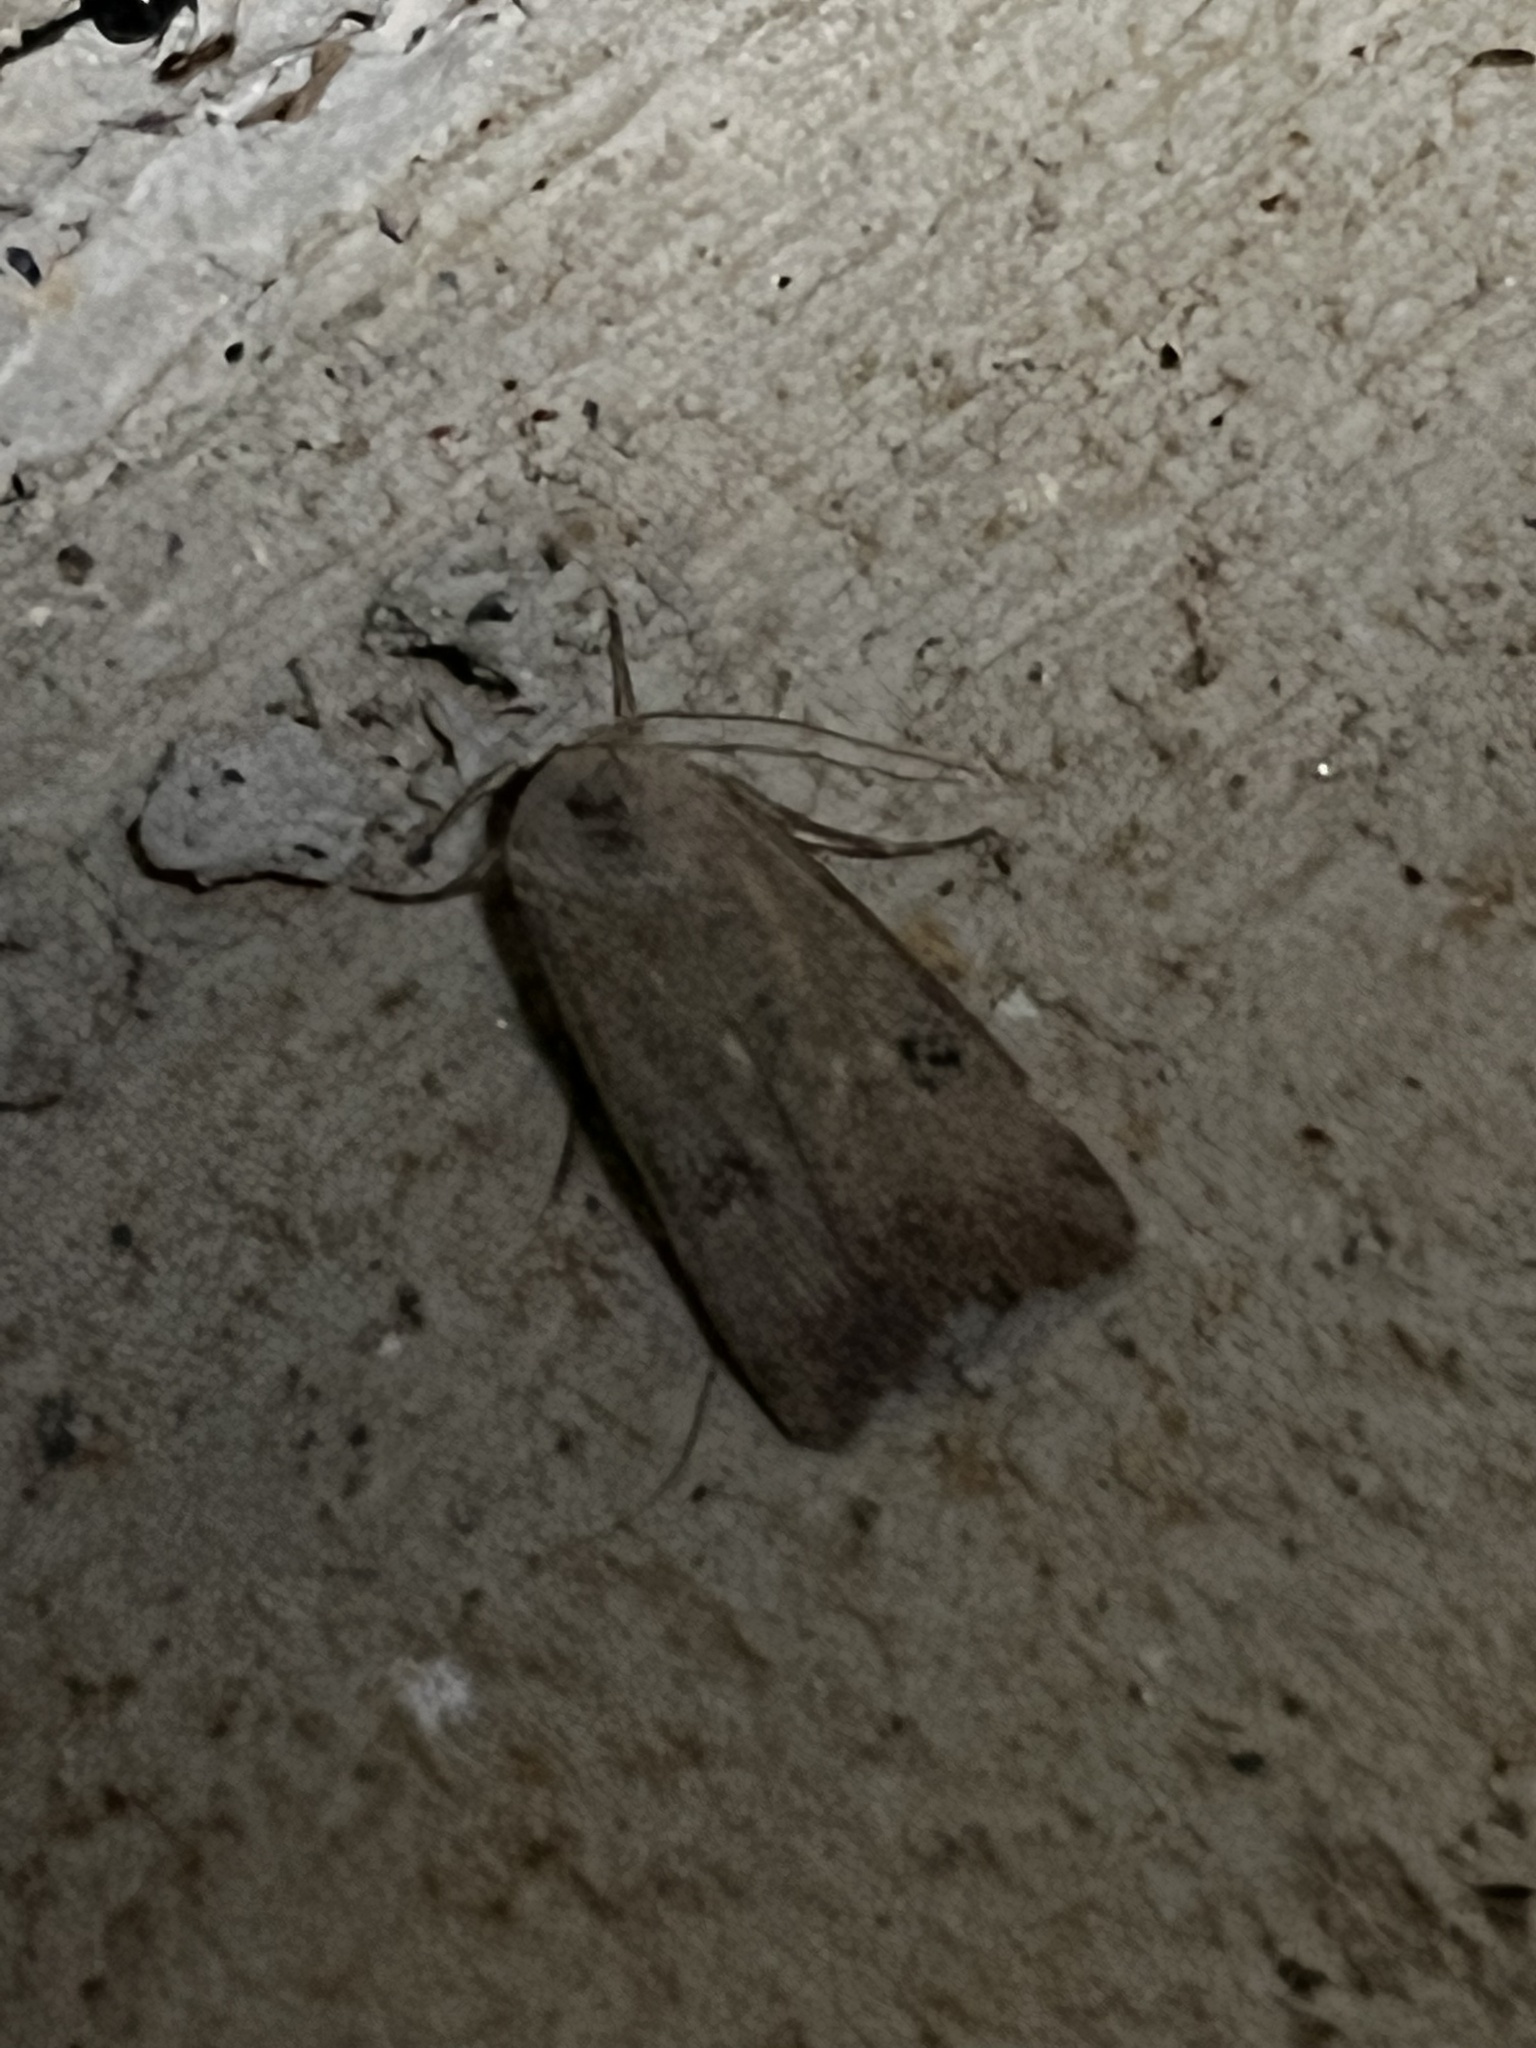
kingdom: Animalia
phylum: Arthropoda
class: Insecta
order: Lepidoptera
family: Noctuidae
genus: Anicla
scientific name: Anicla infecta
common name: Green cutworm
